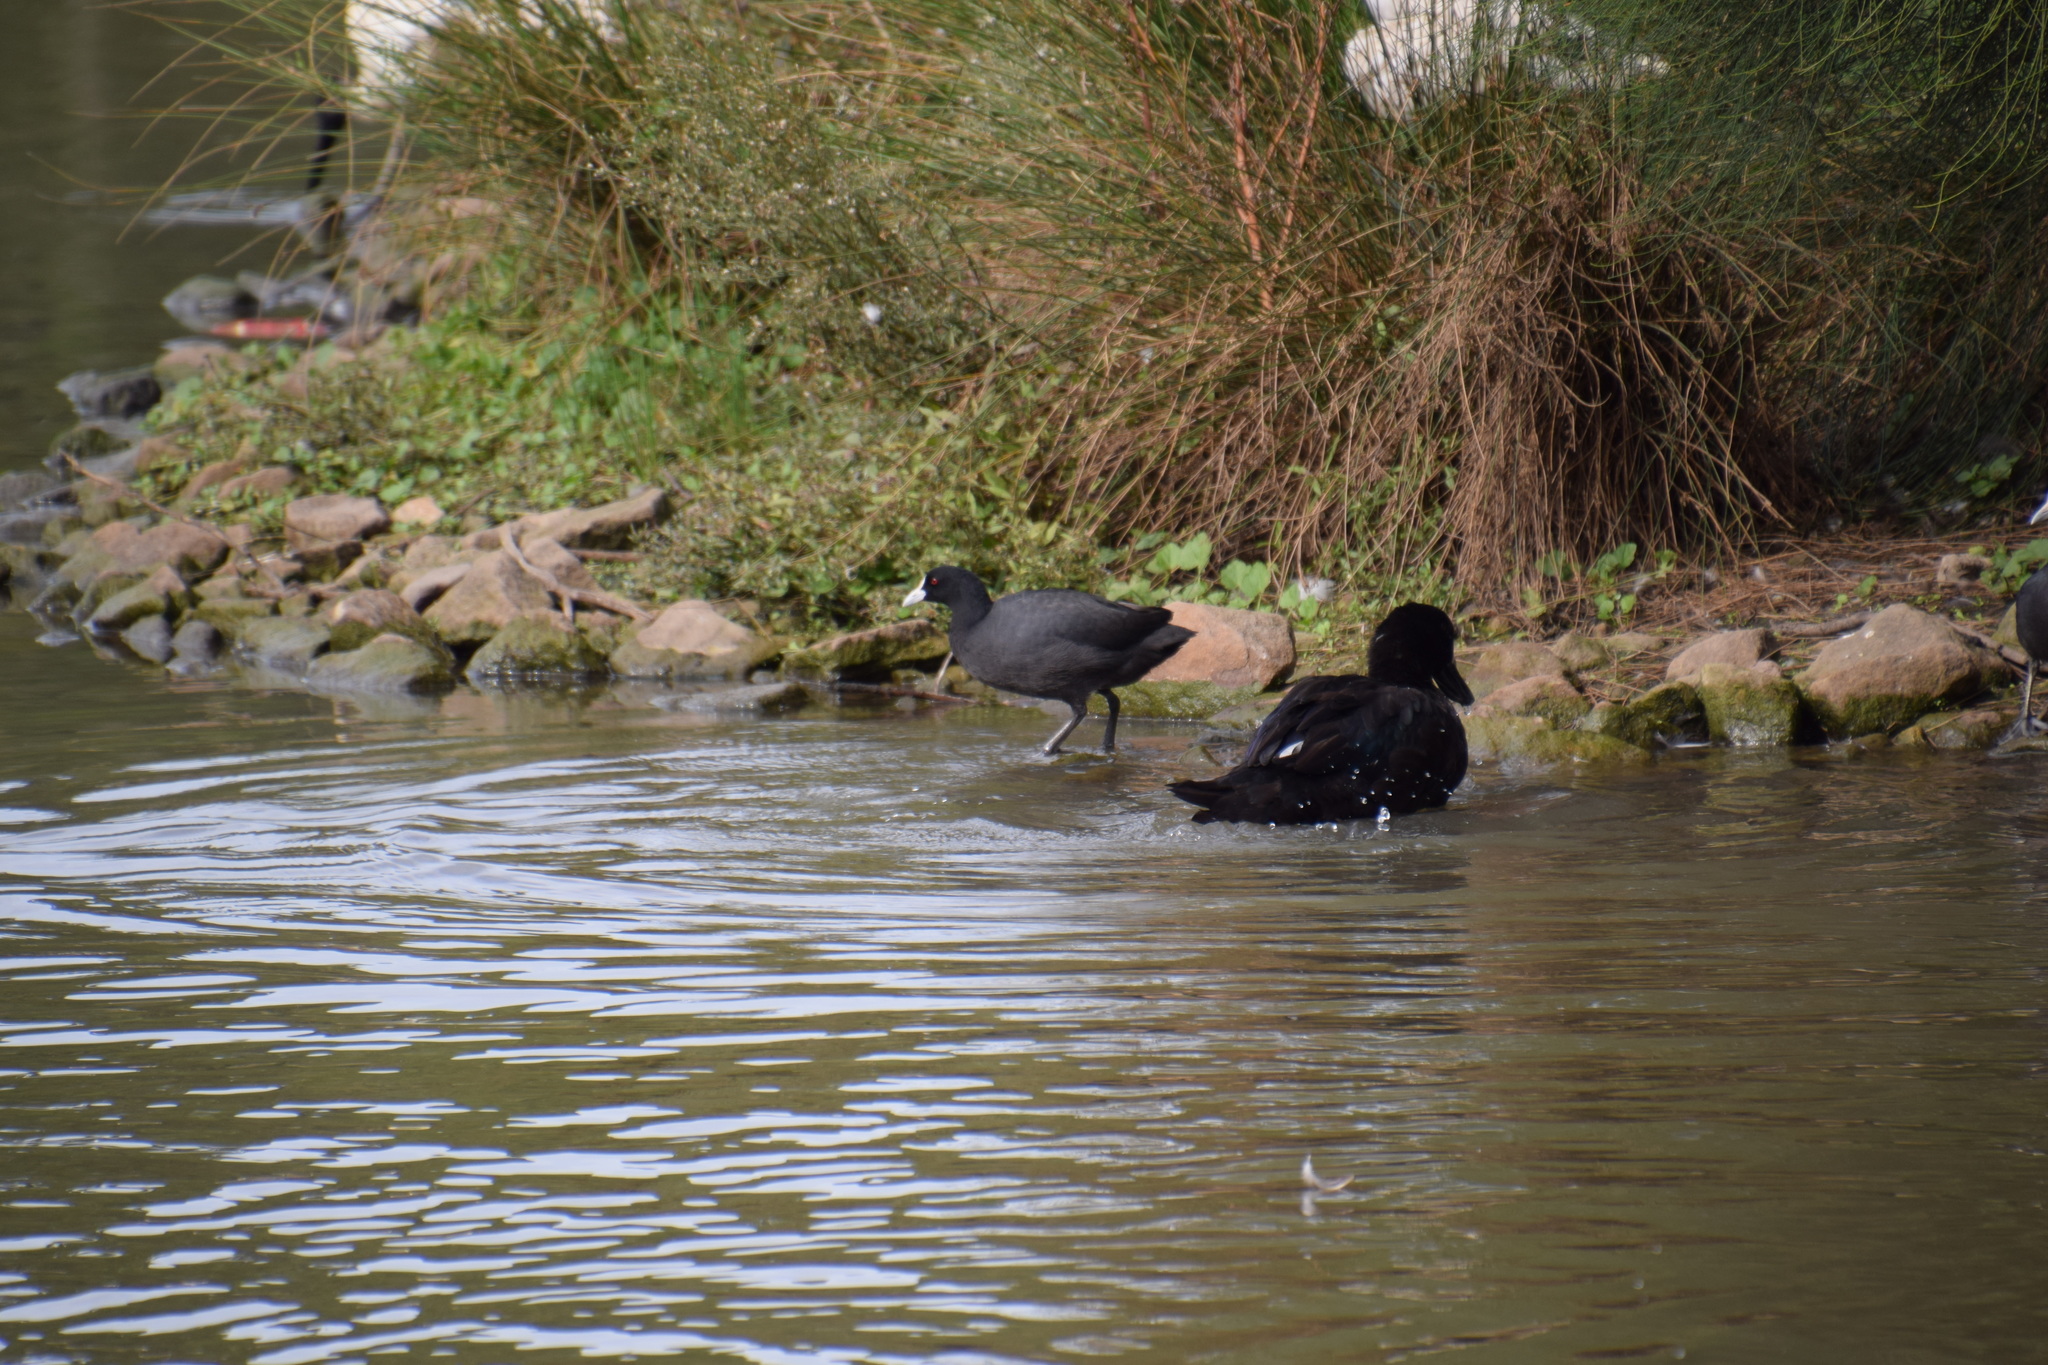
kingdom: Animalia
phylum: Chordata
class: Aves
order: Gruiformes
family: Rallidae
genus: Fulica
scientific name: Fulica atra
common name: Eurasian coot
